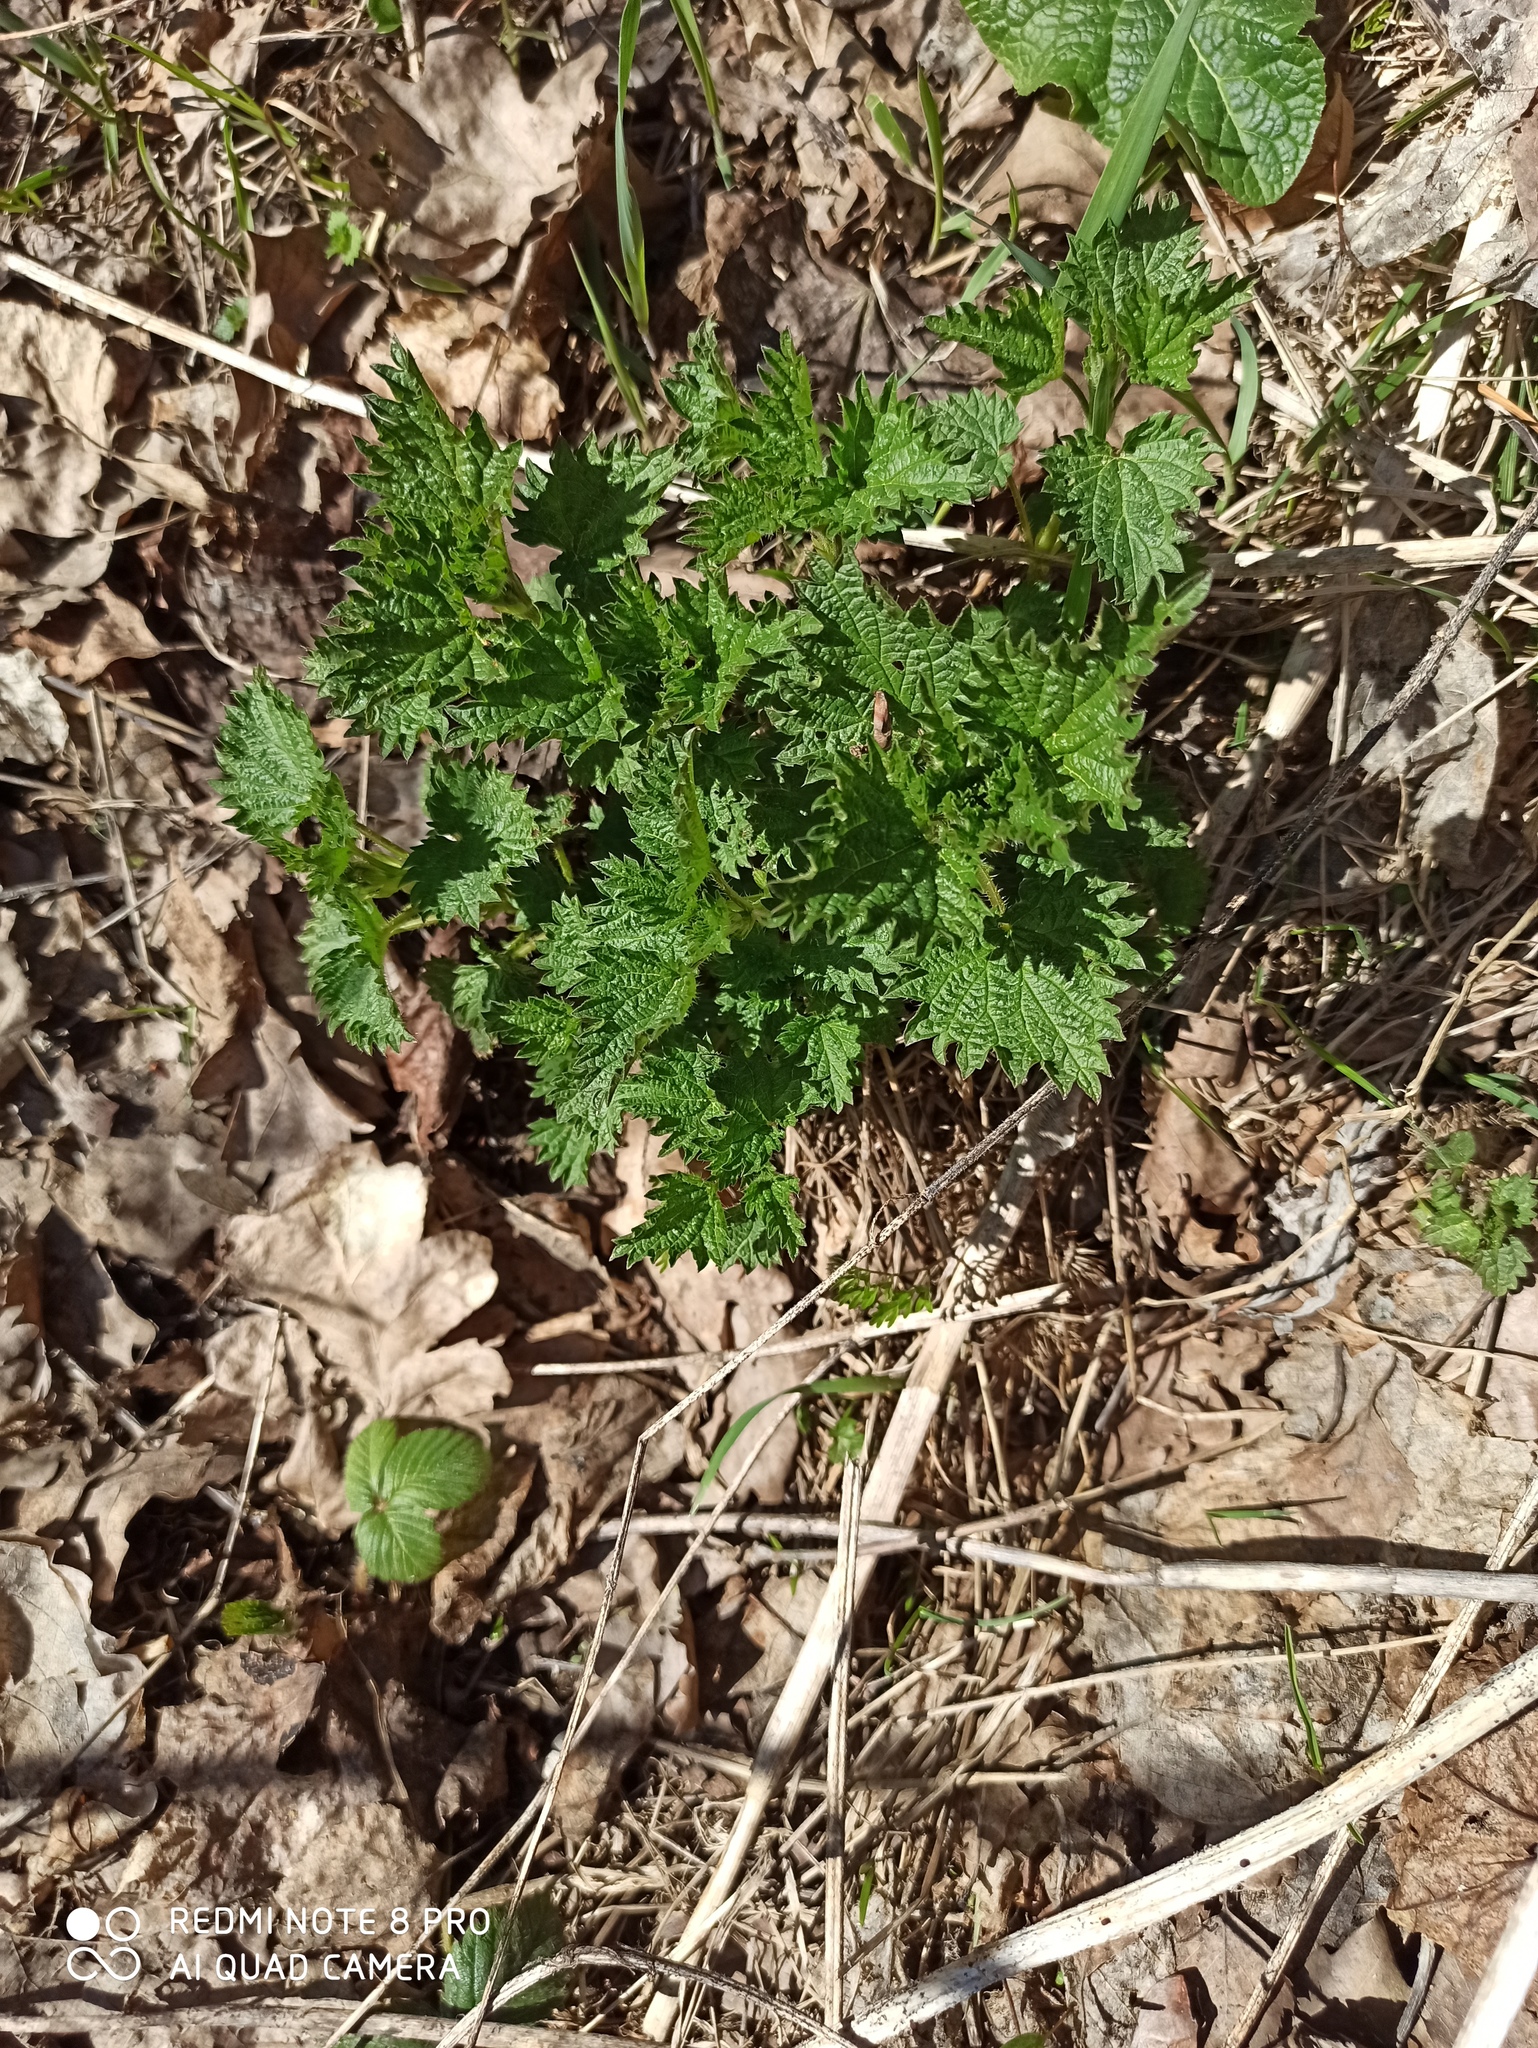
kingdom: Plantae
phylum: Tracheophyta
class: Magnoliopsida
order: Rosales
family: Urticaceae
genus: Urtica
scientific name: Urtica dioica
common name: Common nettle
